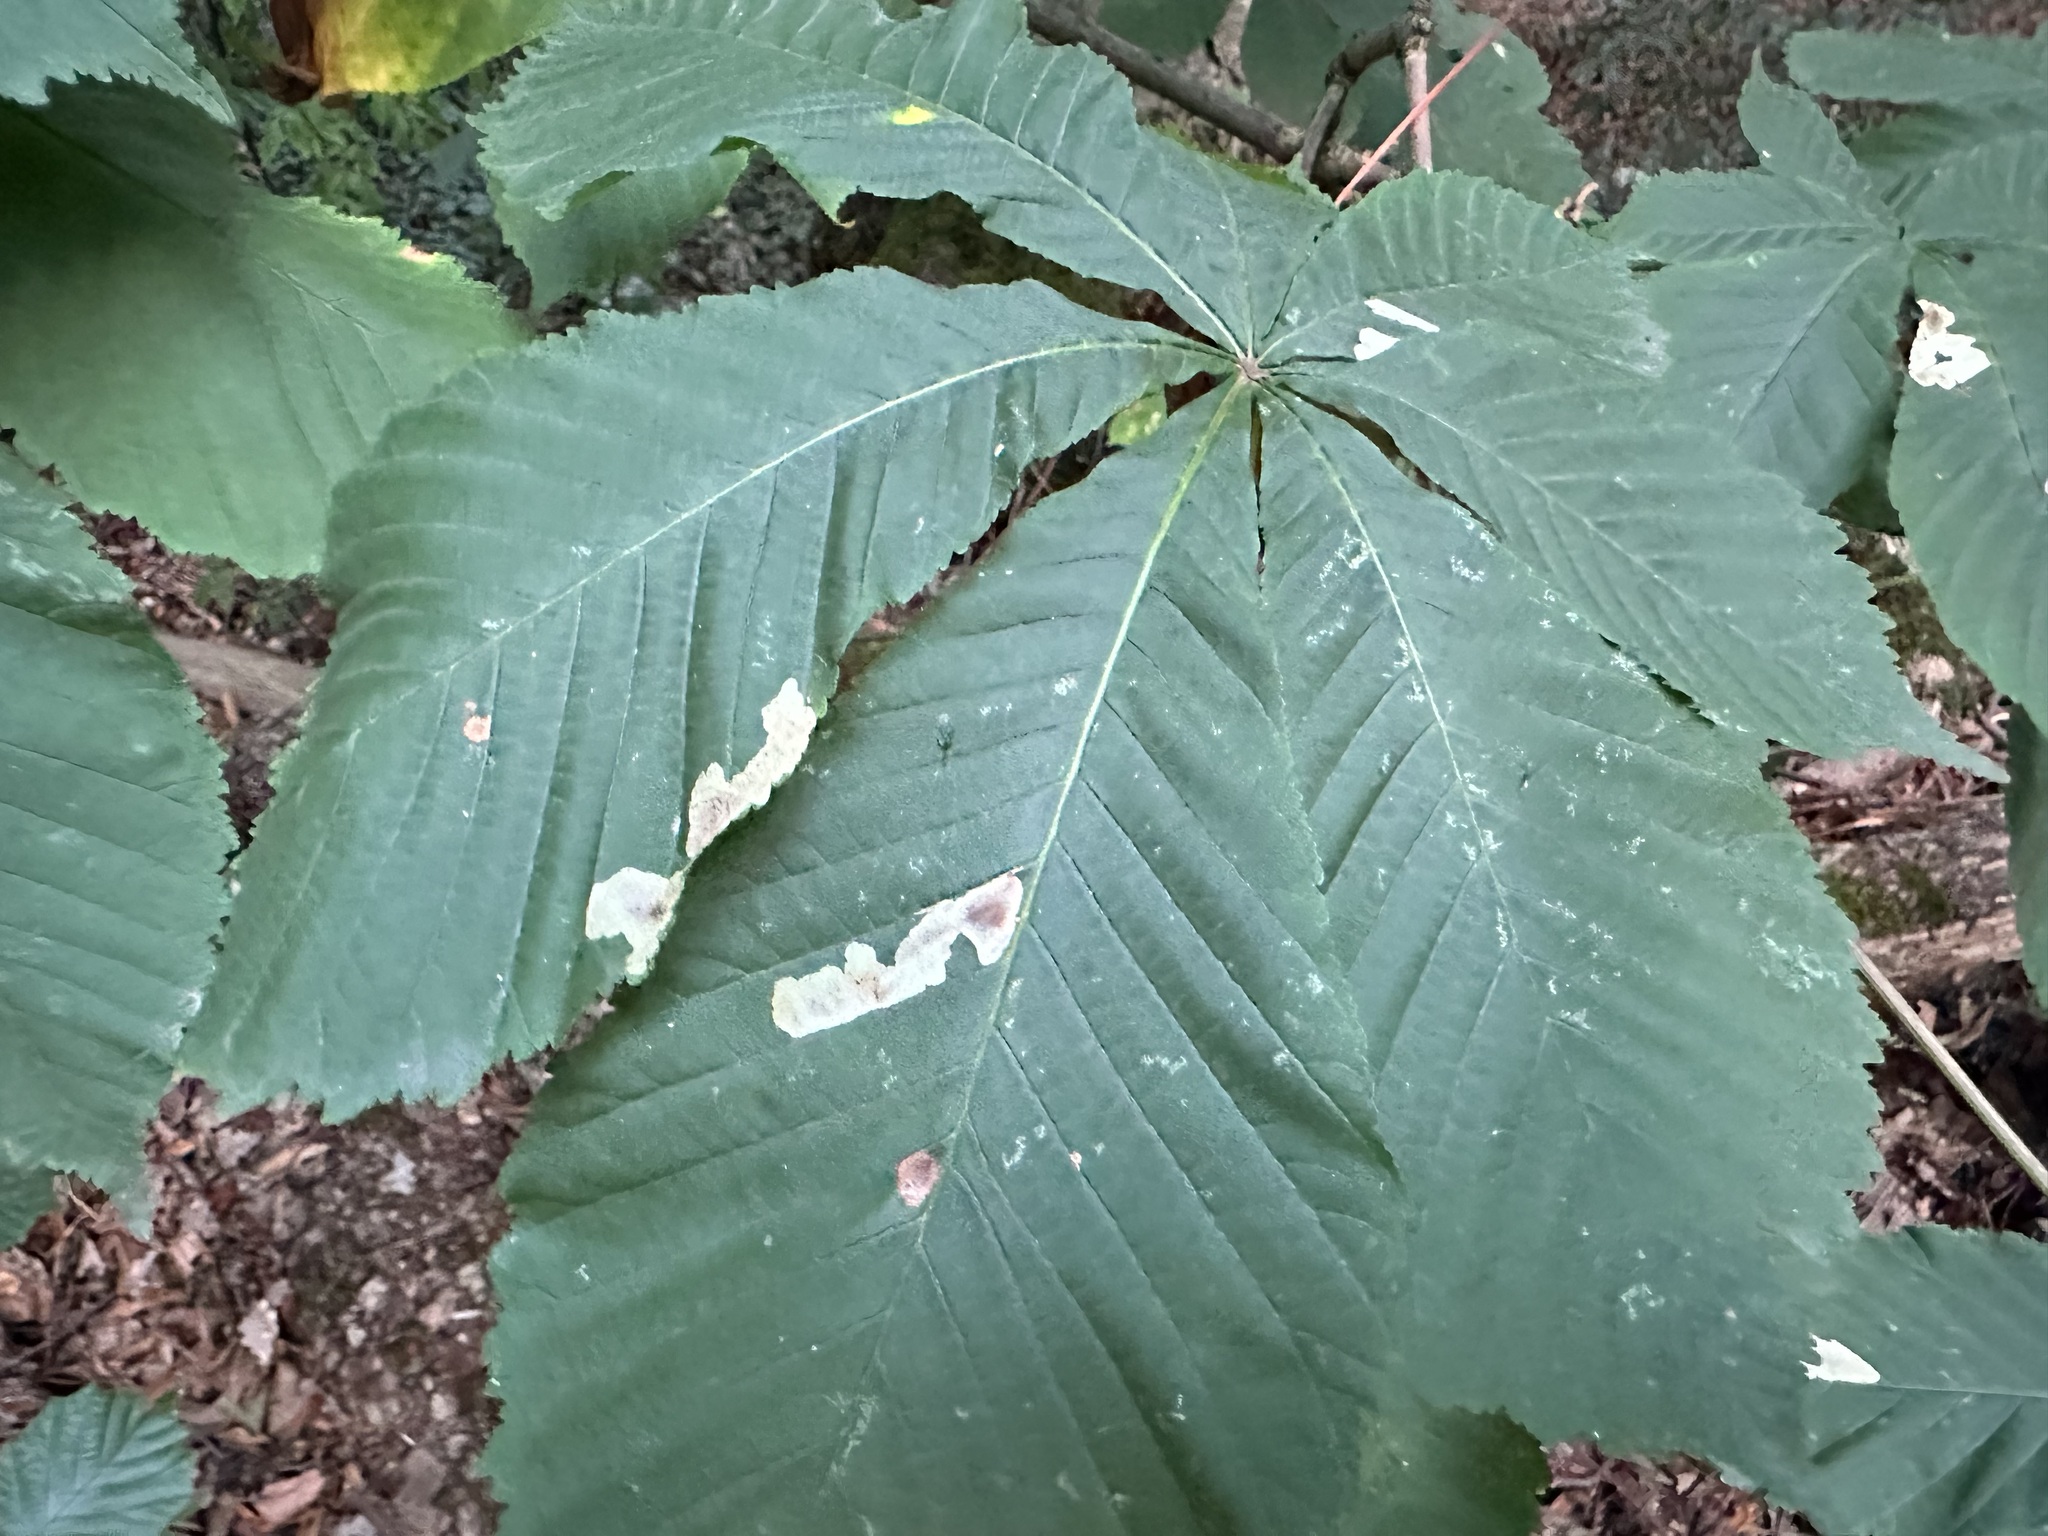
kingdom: Animalia
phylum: Arthropoda
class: Insecta
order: Lepidoptera
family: Gracillariidae
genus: Cameraria
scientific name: Cameraria ohridella
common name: Horse-chestnut leaf-miner
